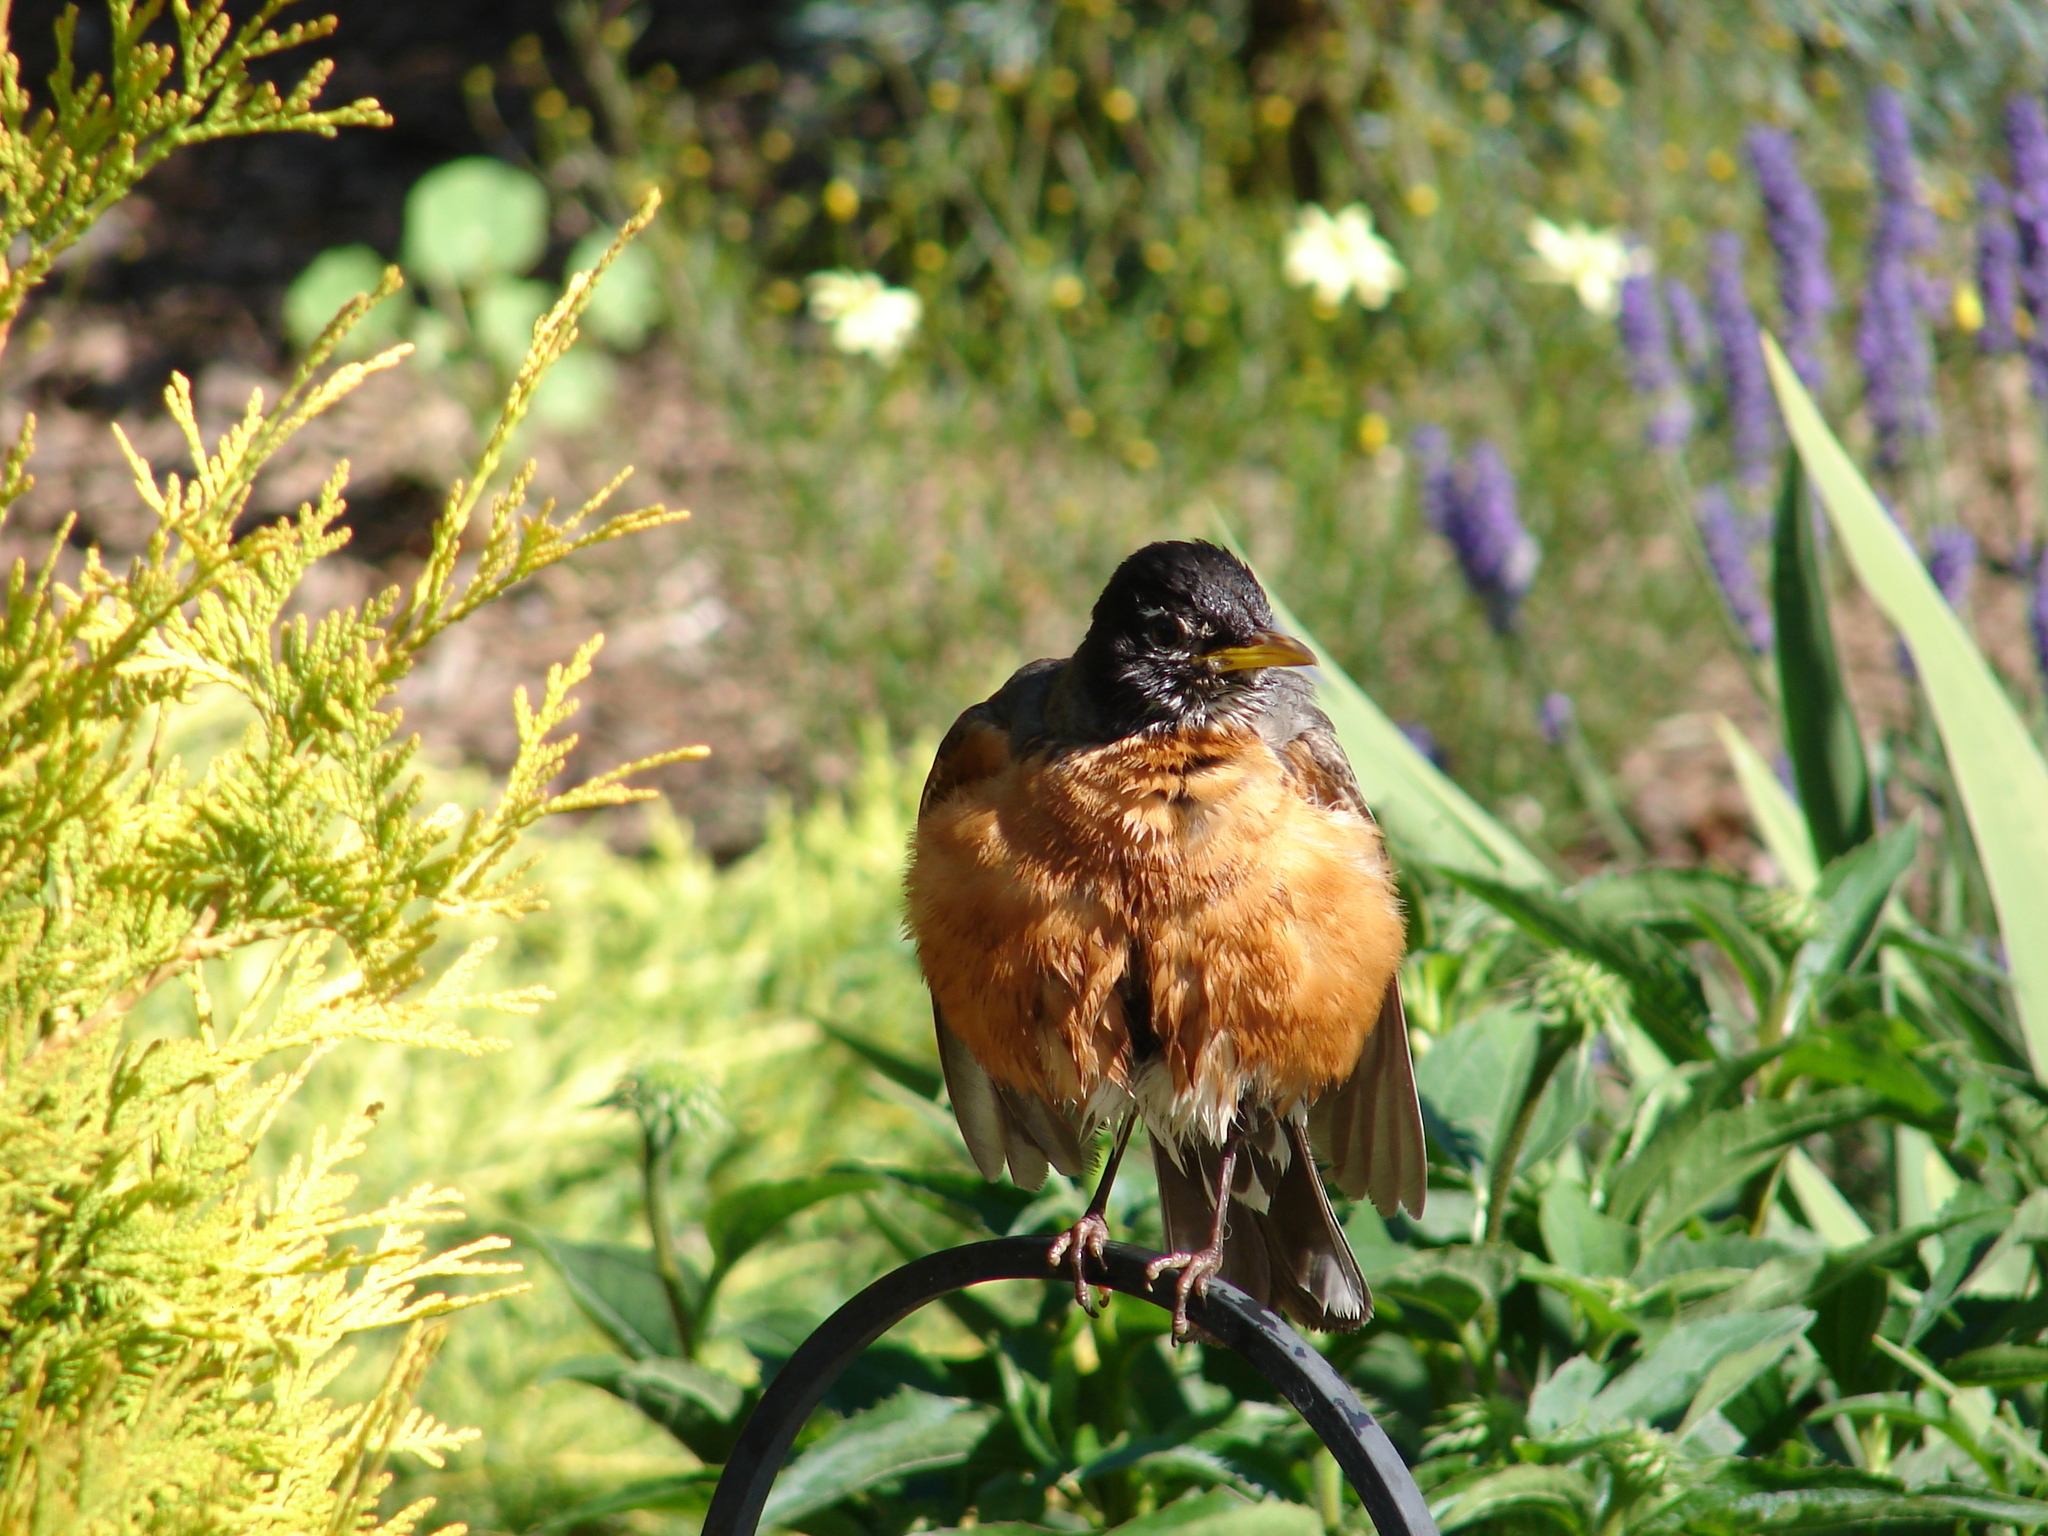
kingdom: Animalia
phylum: Chordata
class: Aves
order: Passeriformes
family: Turdidae
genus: Turdus
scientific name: Turdus migratorius
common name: American robin
